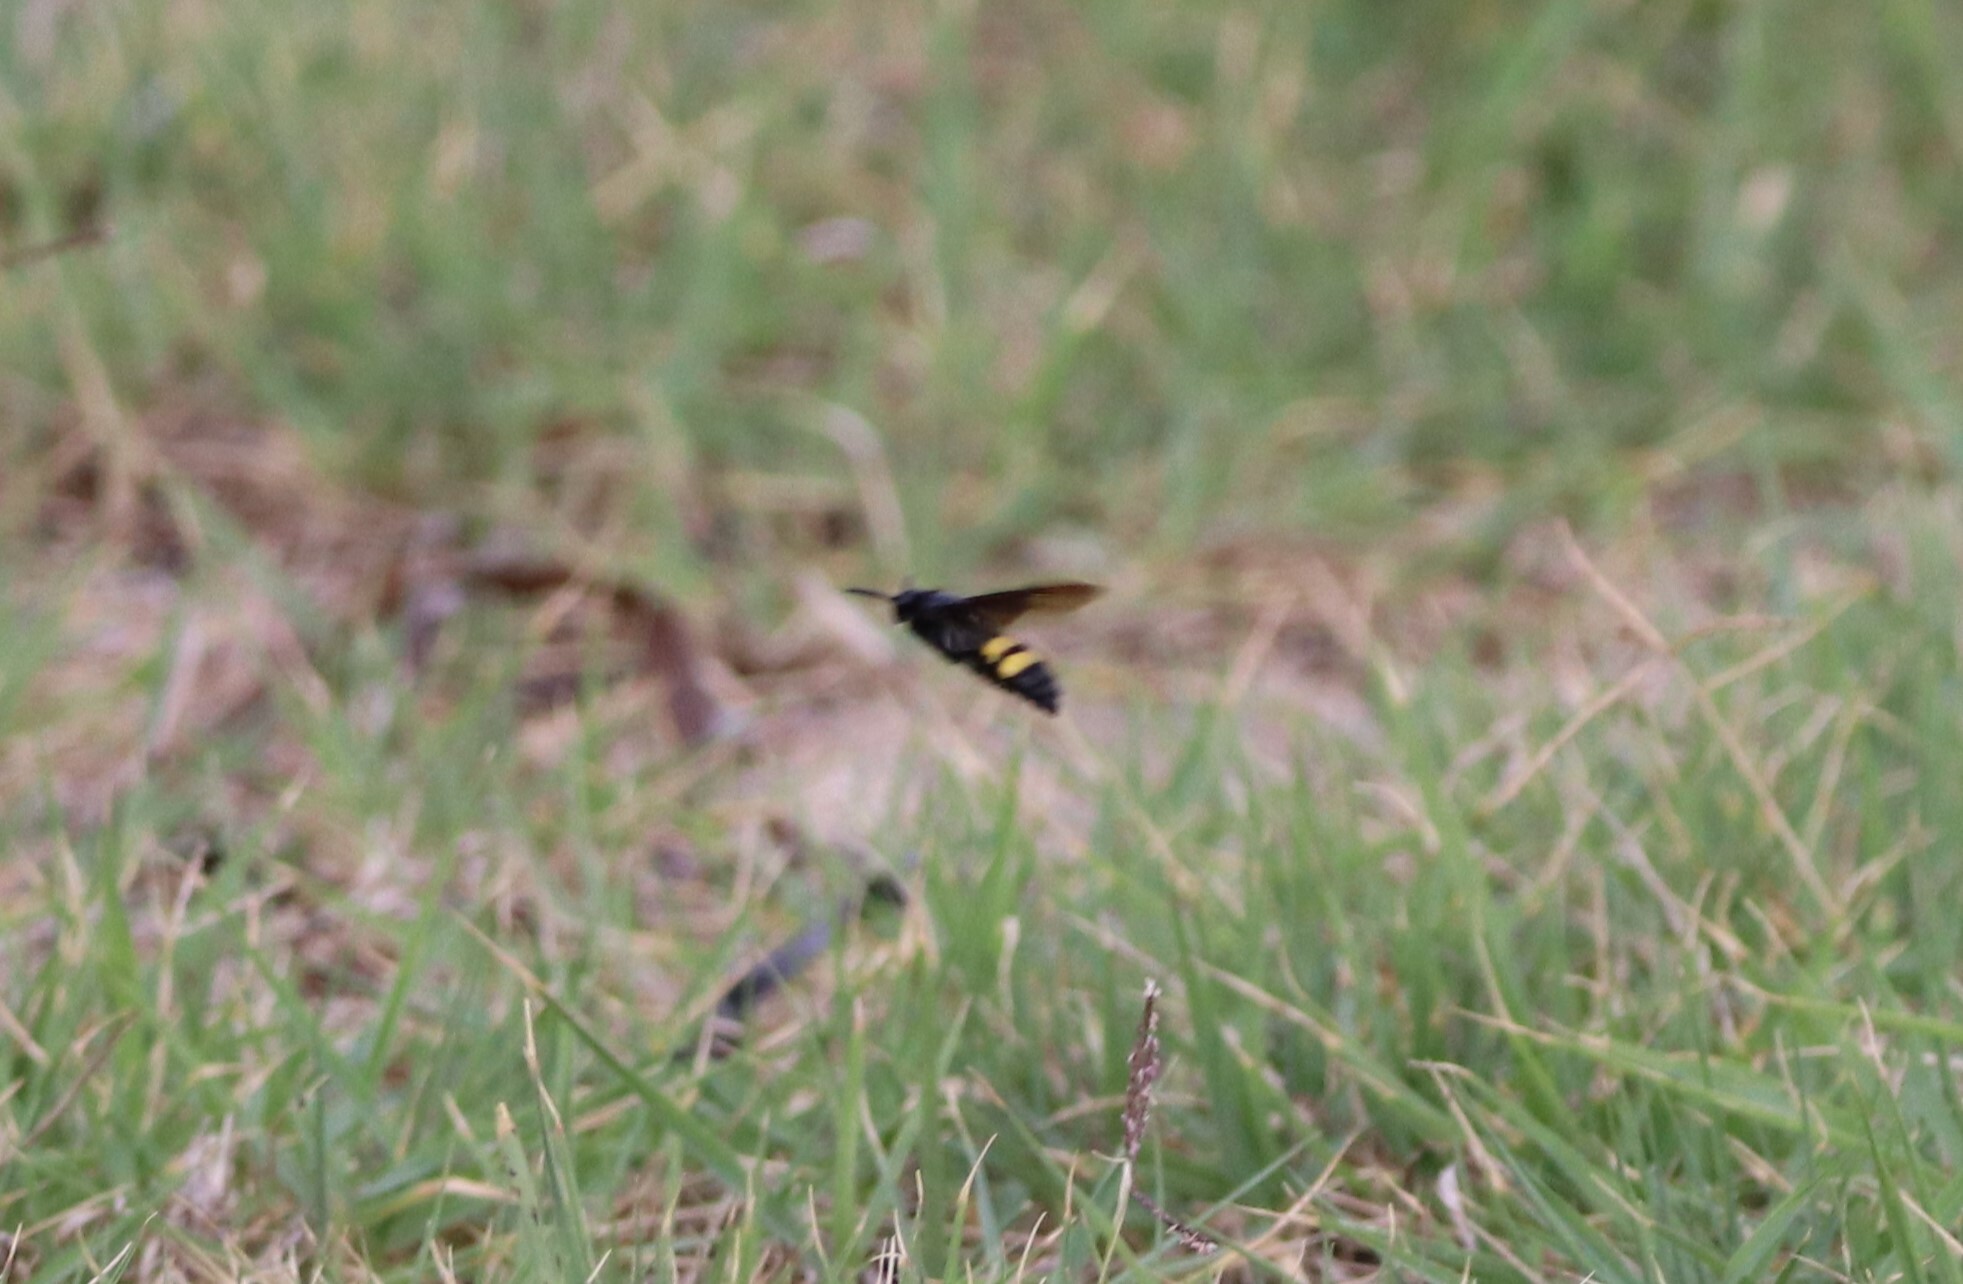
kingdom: Animalia
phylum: Arthropoda
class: Insecta
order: Hymenoptera
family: Scoliidae
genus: Scolia
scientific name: Scolia hirta
